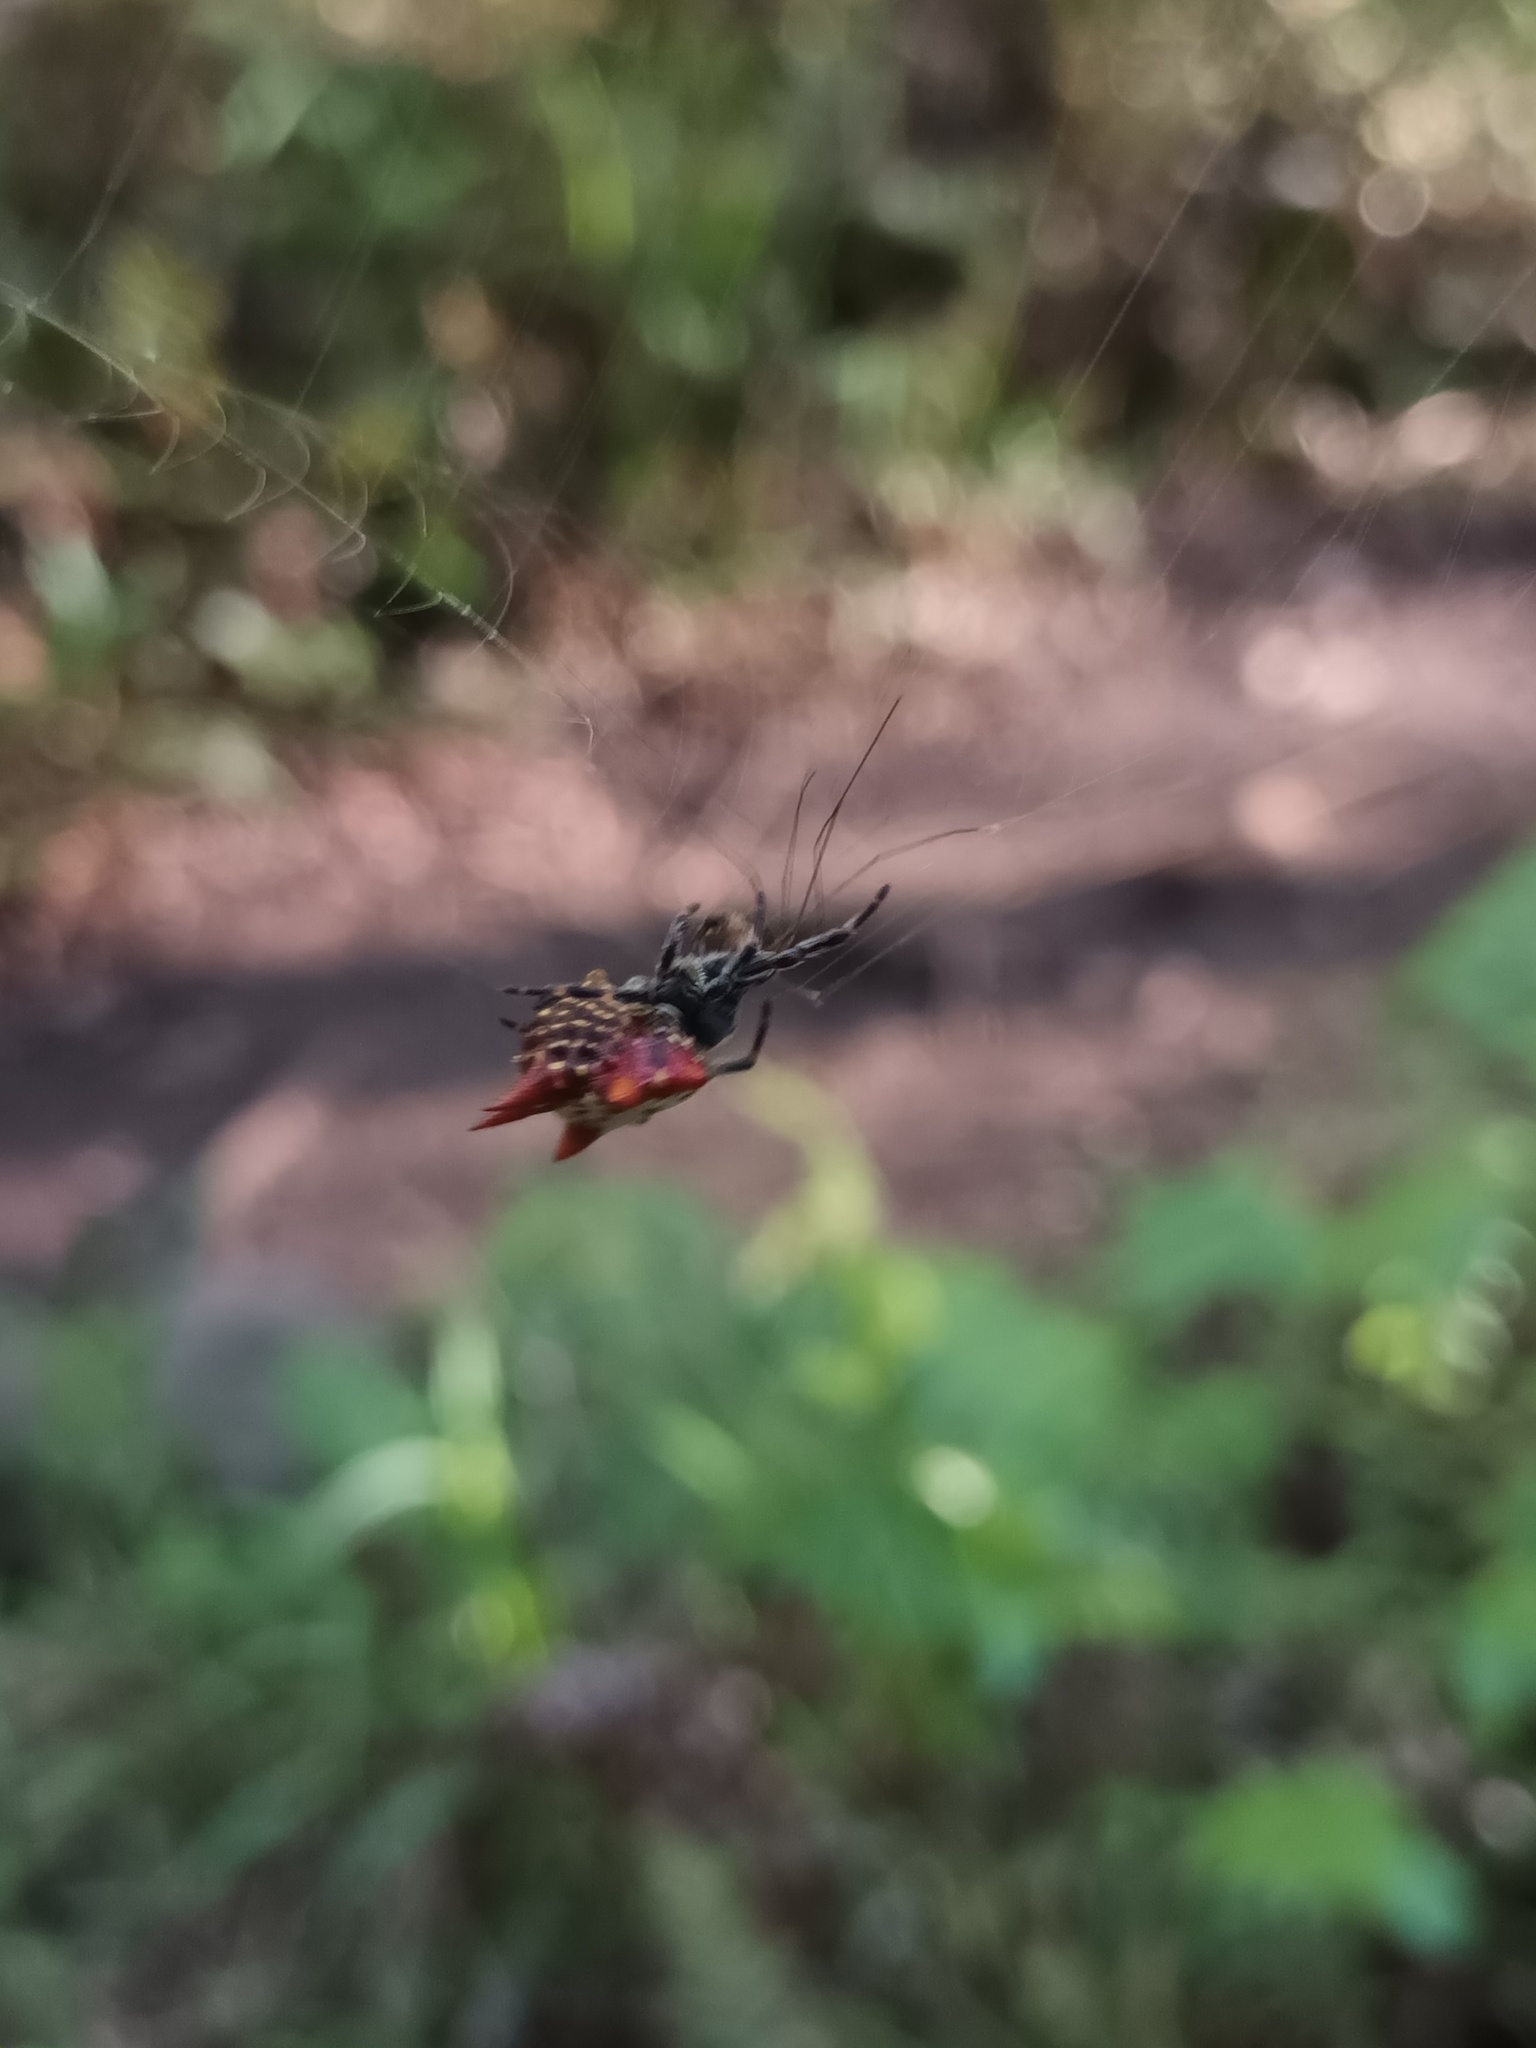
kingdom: Animalia
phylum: Arthropoda
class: Arachnida
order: Araneae
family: Araneidae
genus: Gasteracantha
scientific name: Gasteracantha cancriformis
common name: Orb weavers
